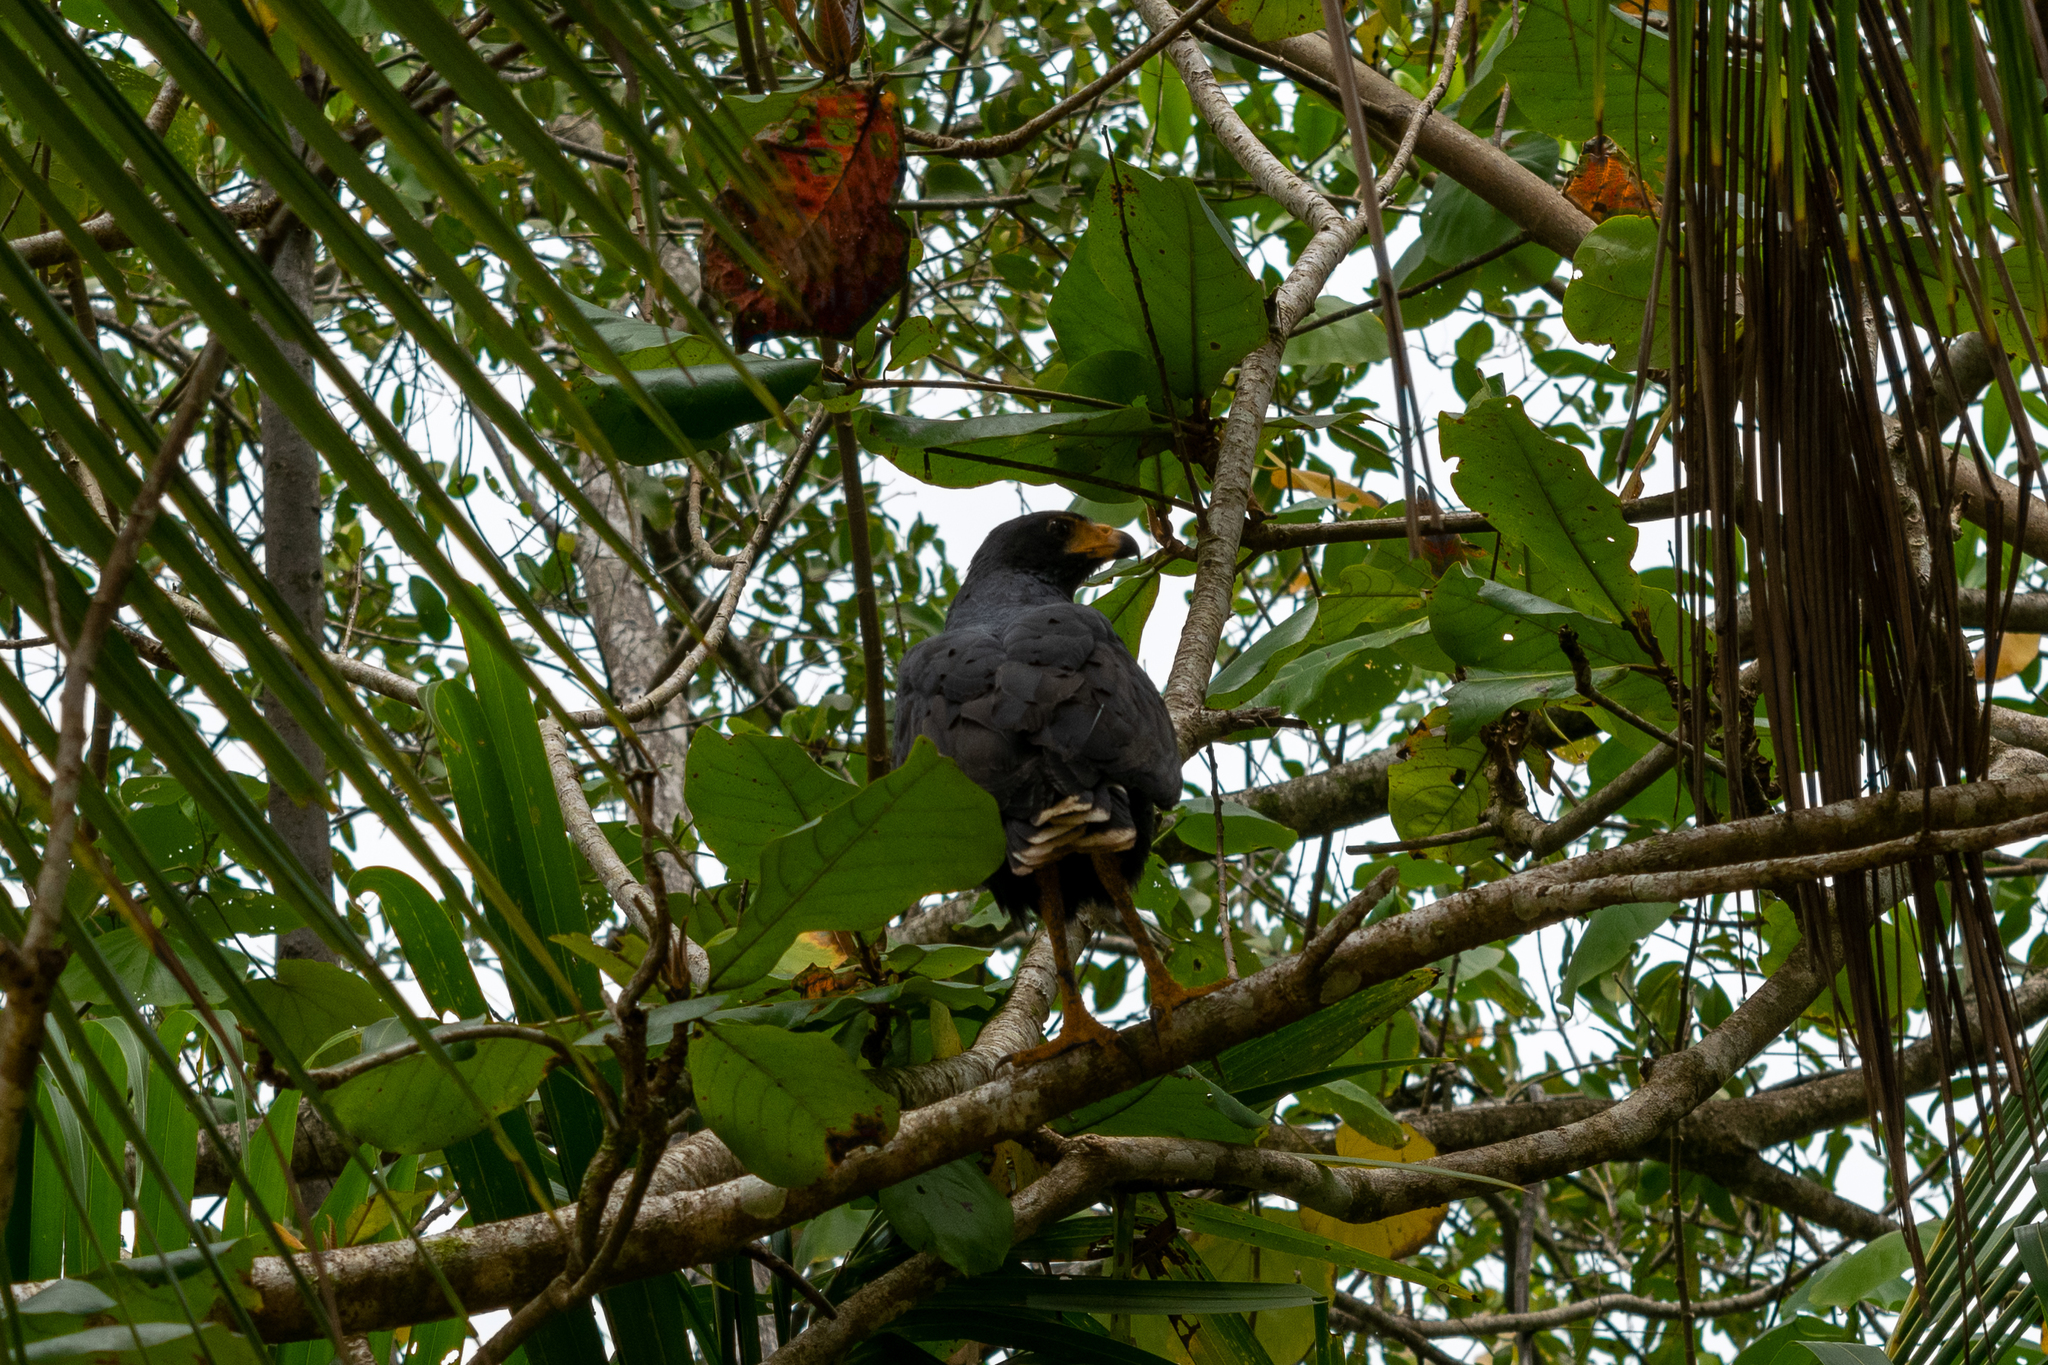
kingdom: Animalia
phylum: Chordata
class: Aves
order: Accipitriformes
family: Accipitridae
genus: Buteogallus
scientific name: Buteogallus anthracinus
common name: Common black hawk
